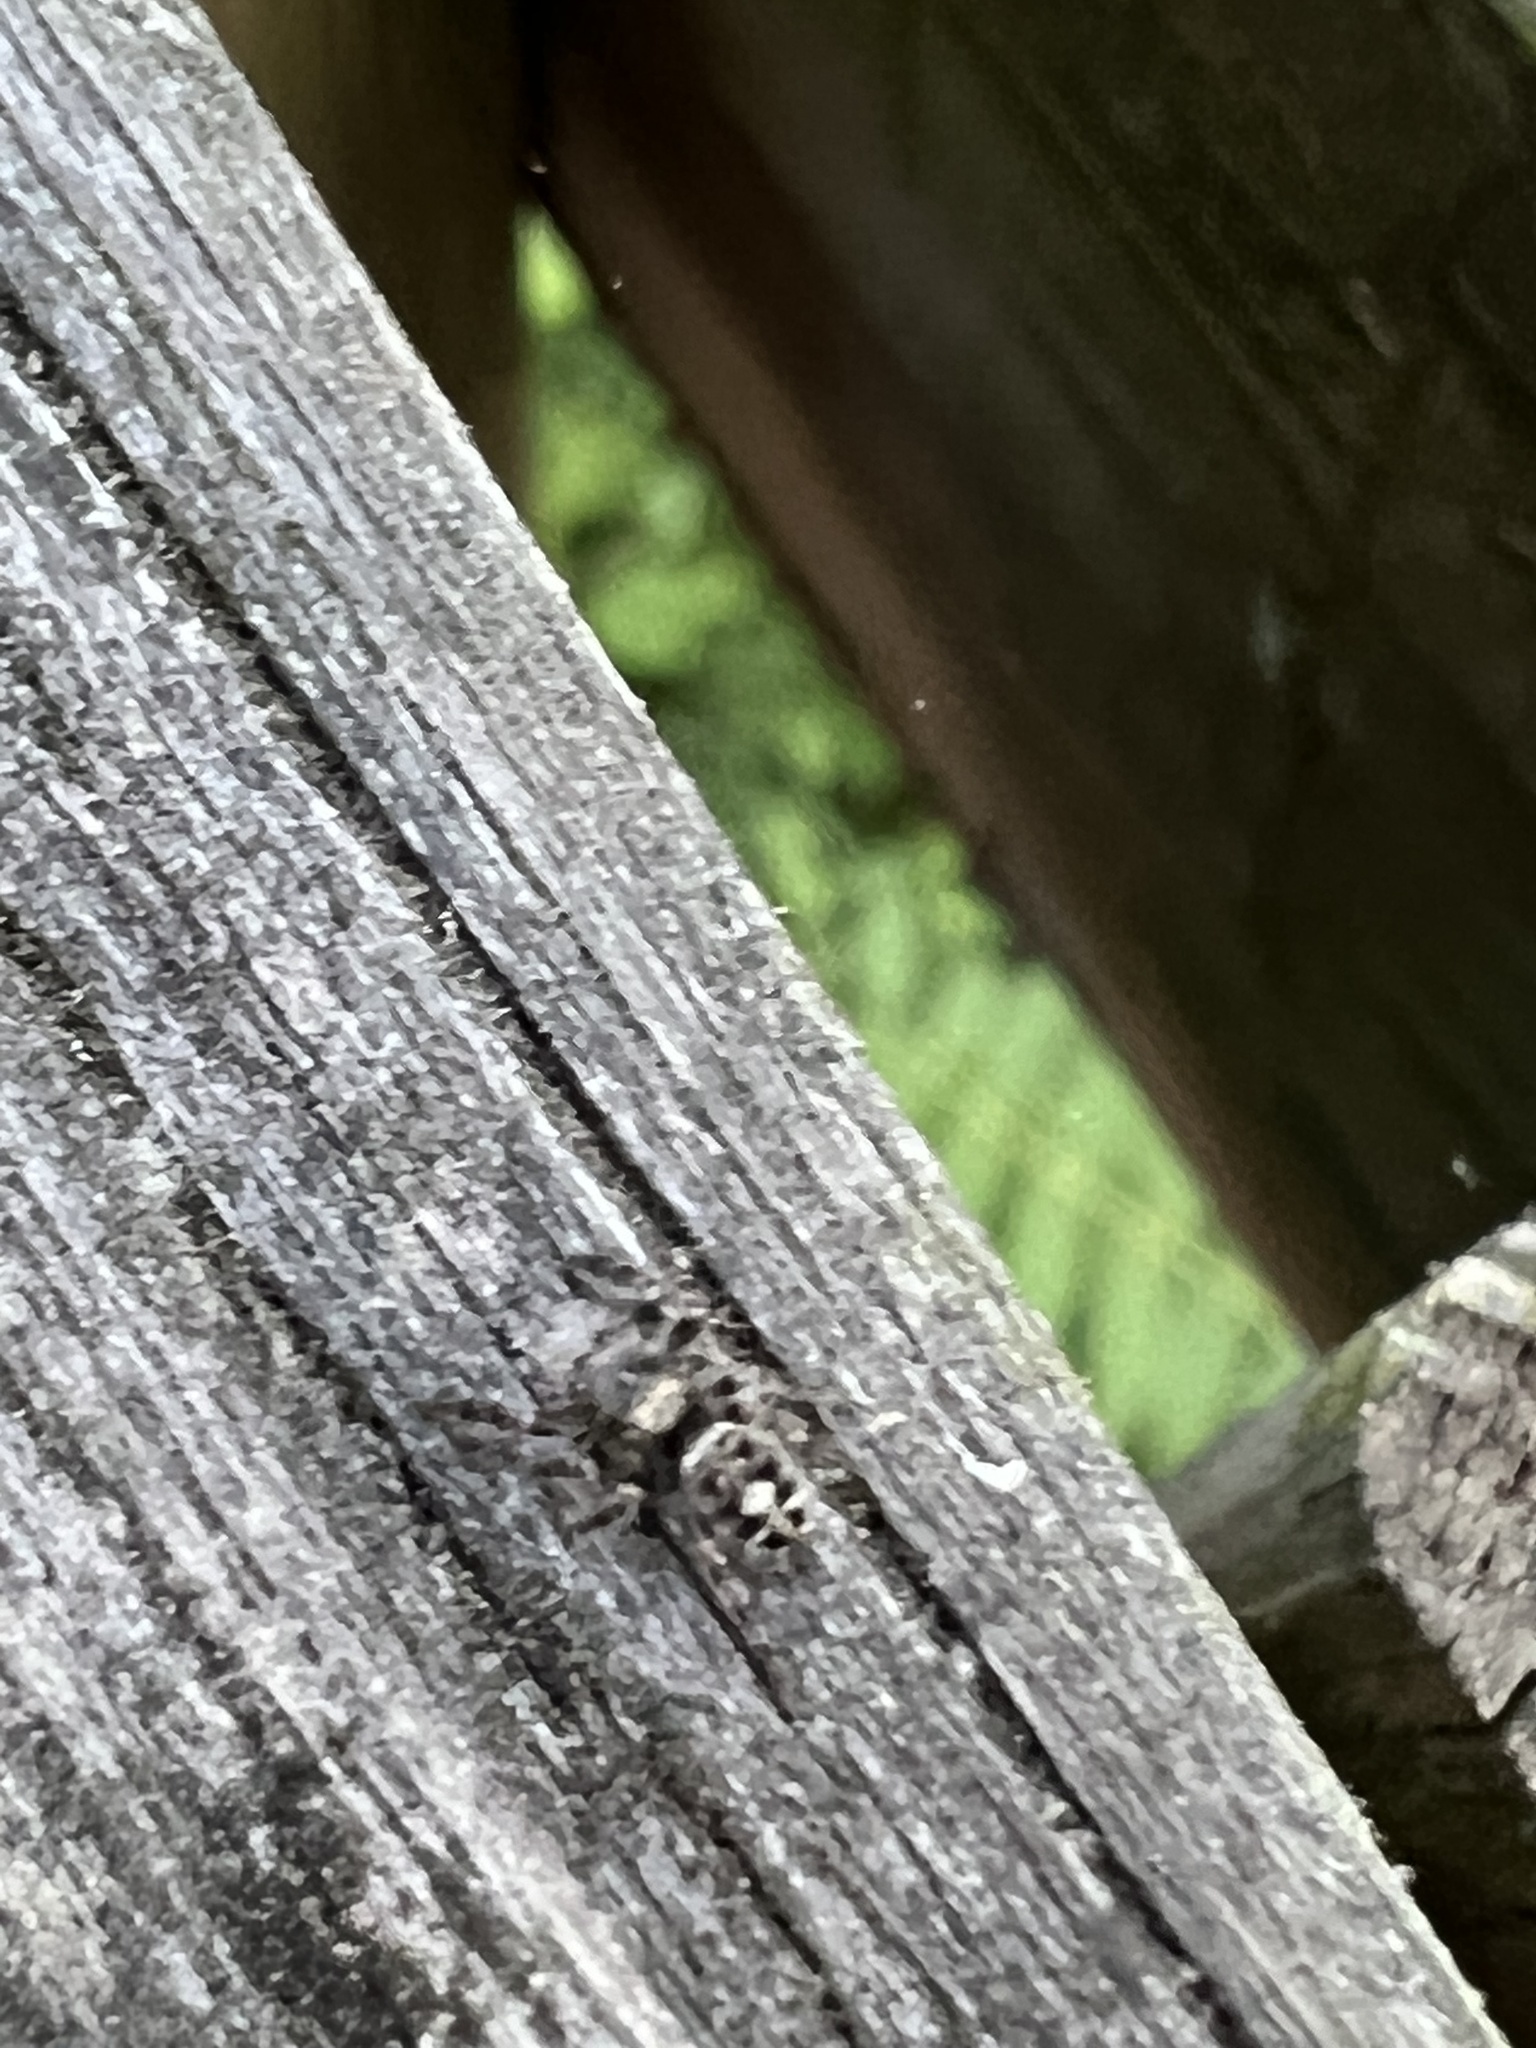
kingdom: Animalia
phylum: Arthropoda
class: Arachnida
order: Araneae
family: Salticidae
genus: Phidippus
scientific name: Phidippus putnami
